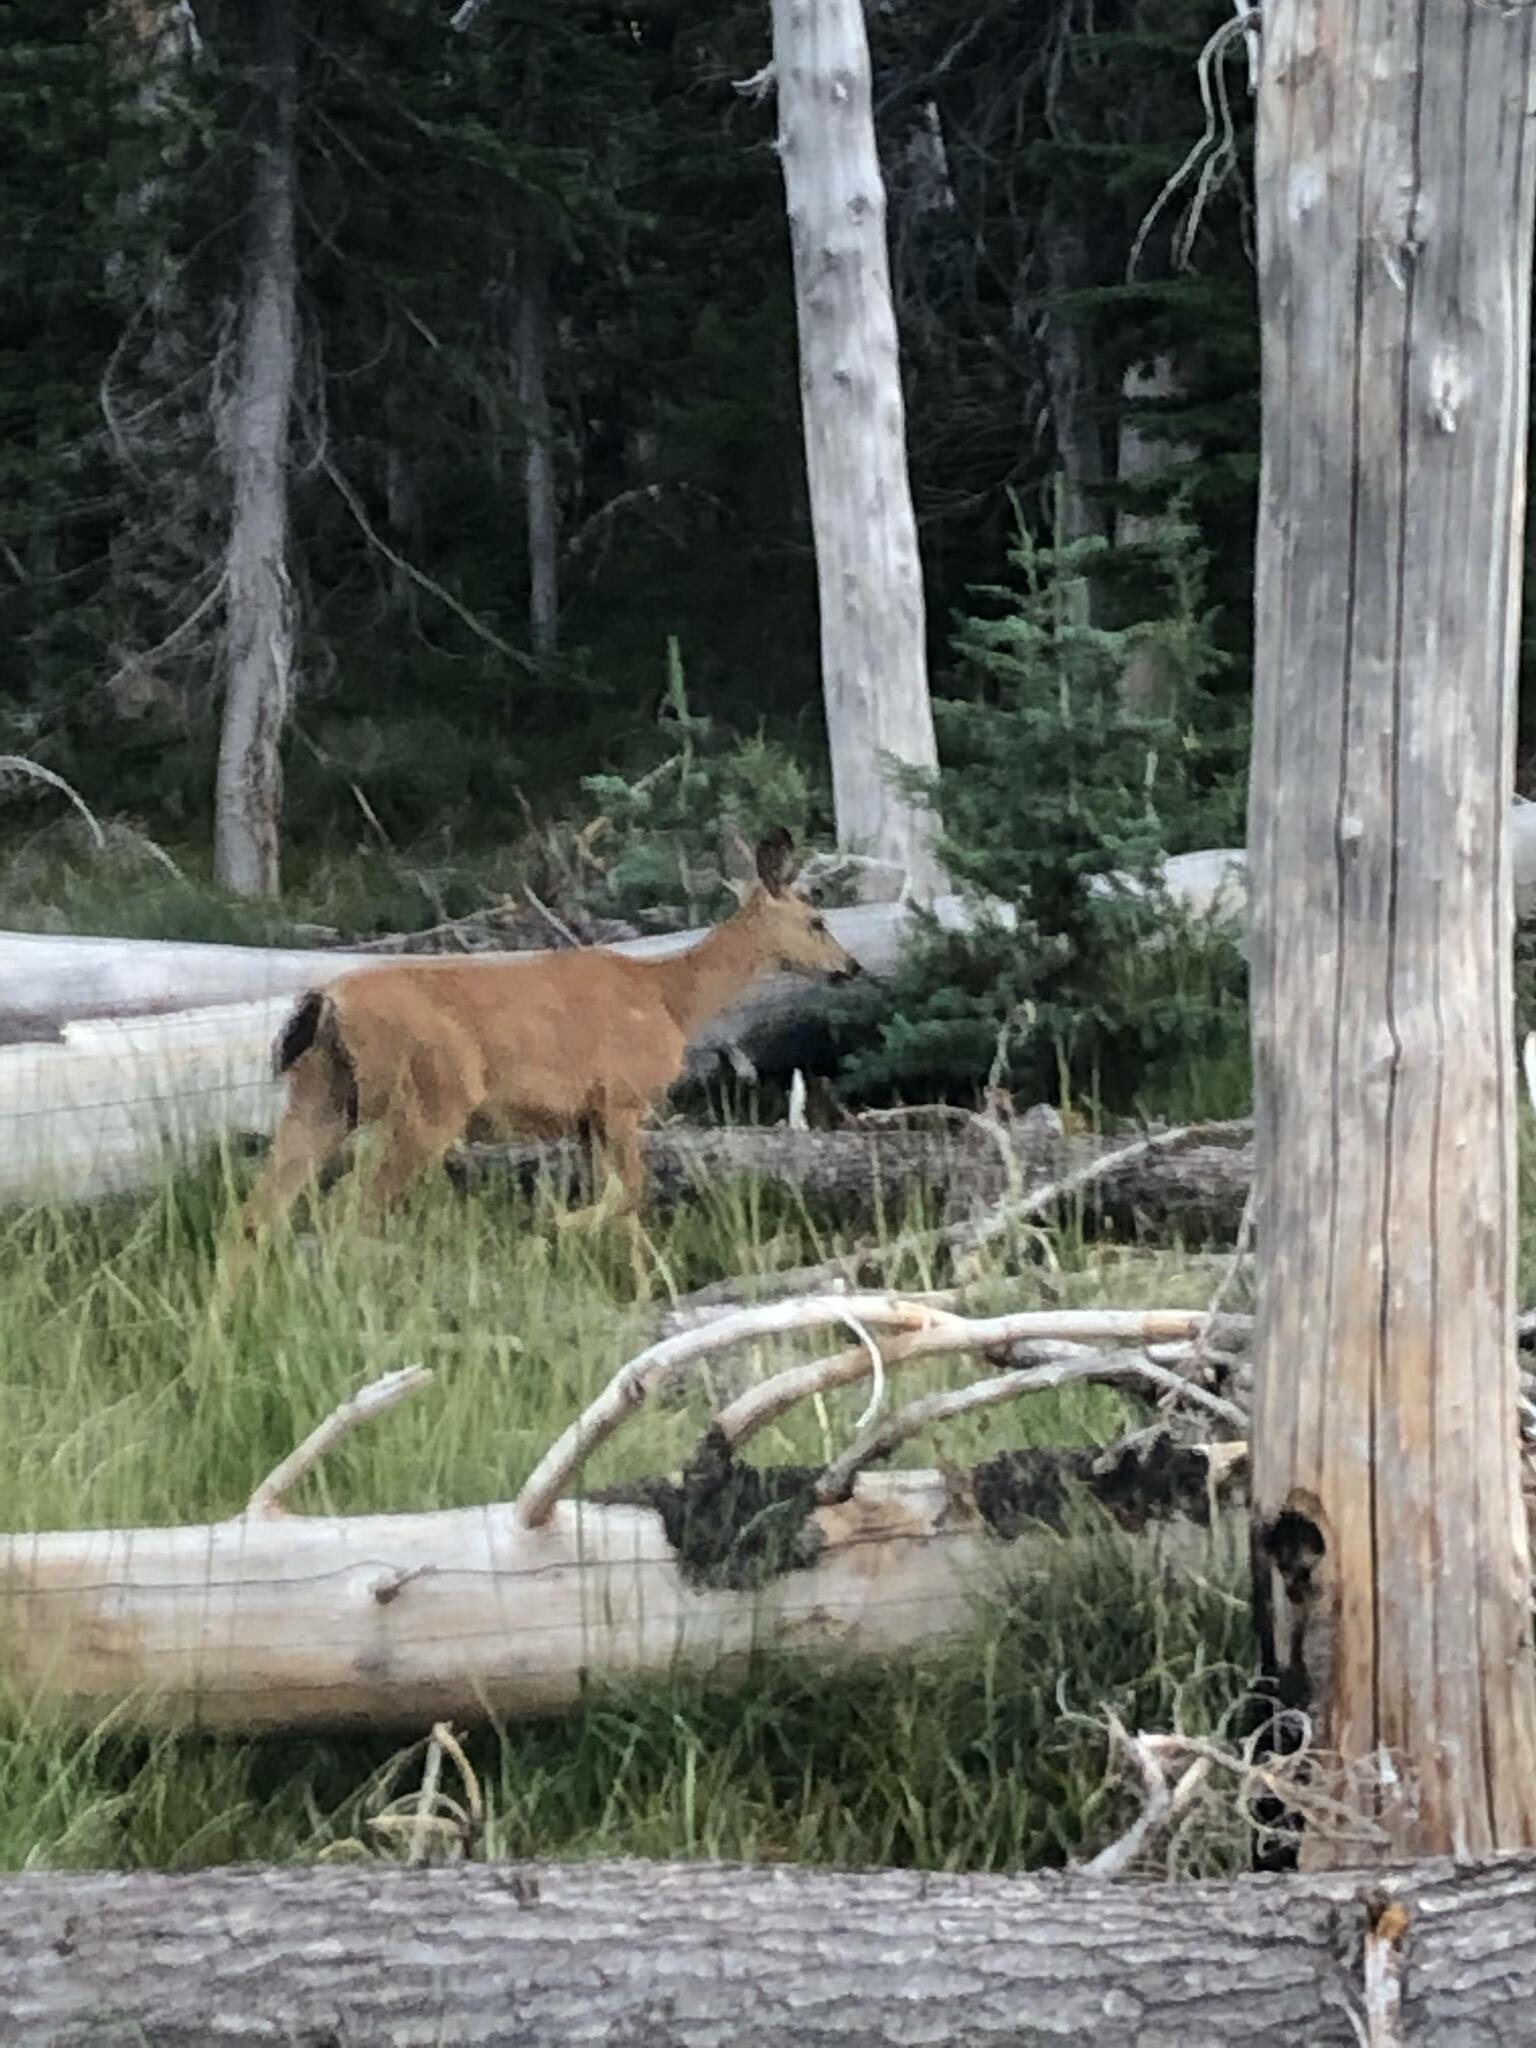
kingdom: Animalia
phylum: Chordata
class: Mammalia
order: Artiodactyla
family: Cervidae
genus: Odocoileus
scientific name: Odocoileus hemionus
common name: Mule deer
